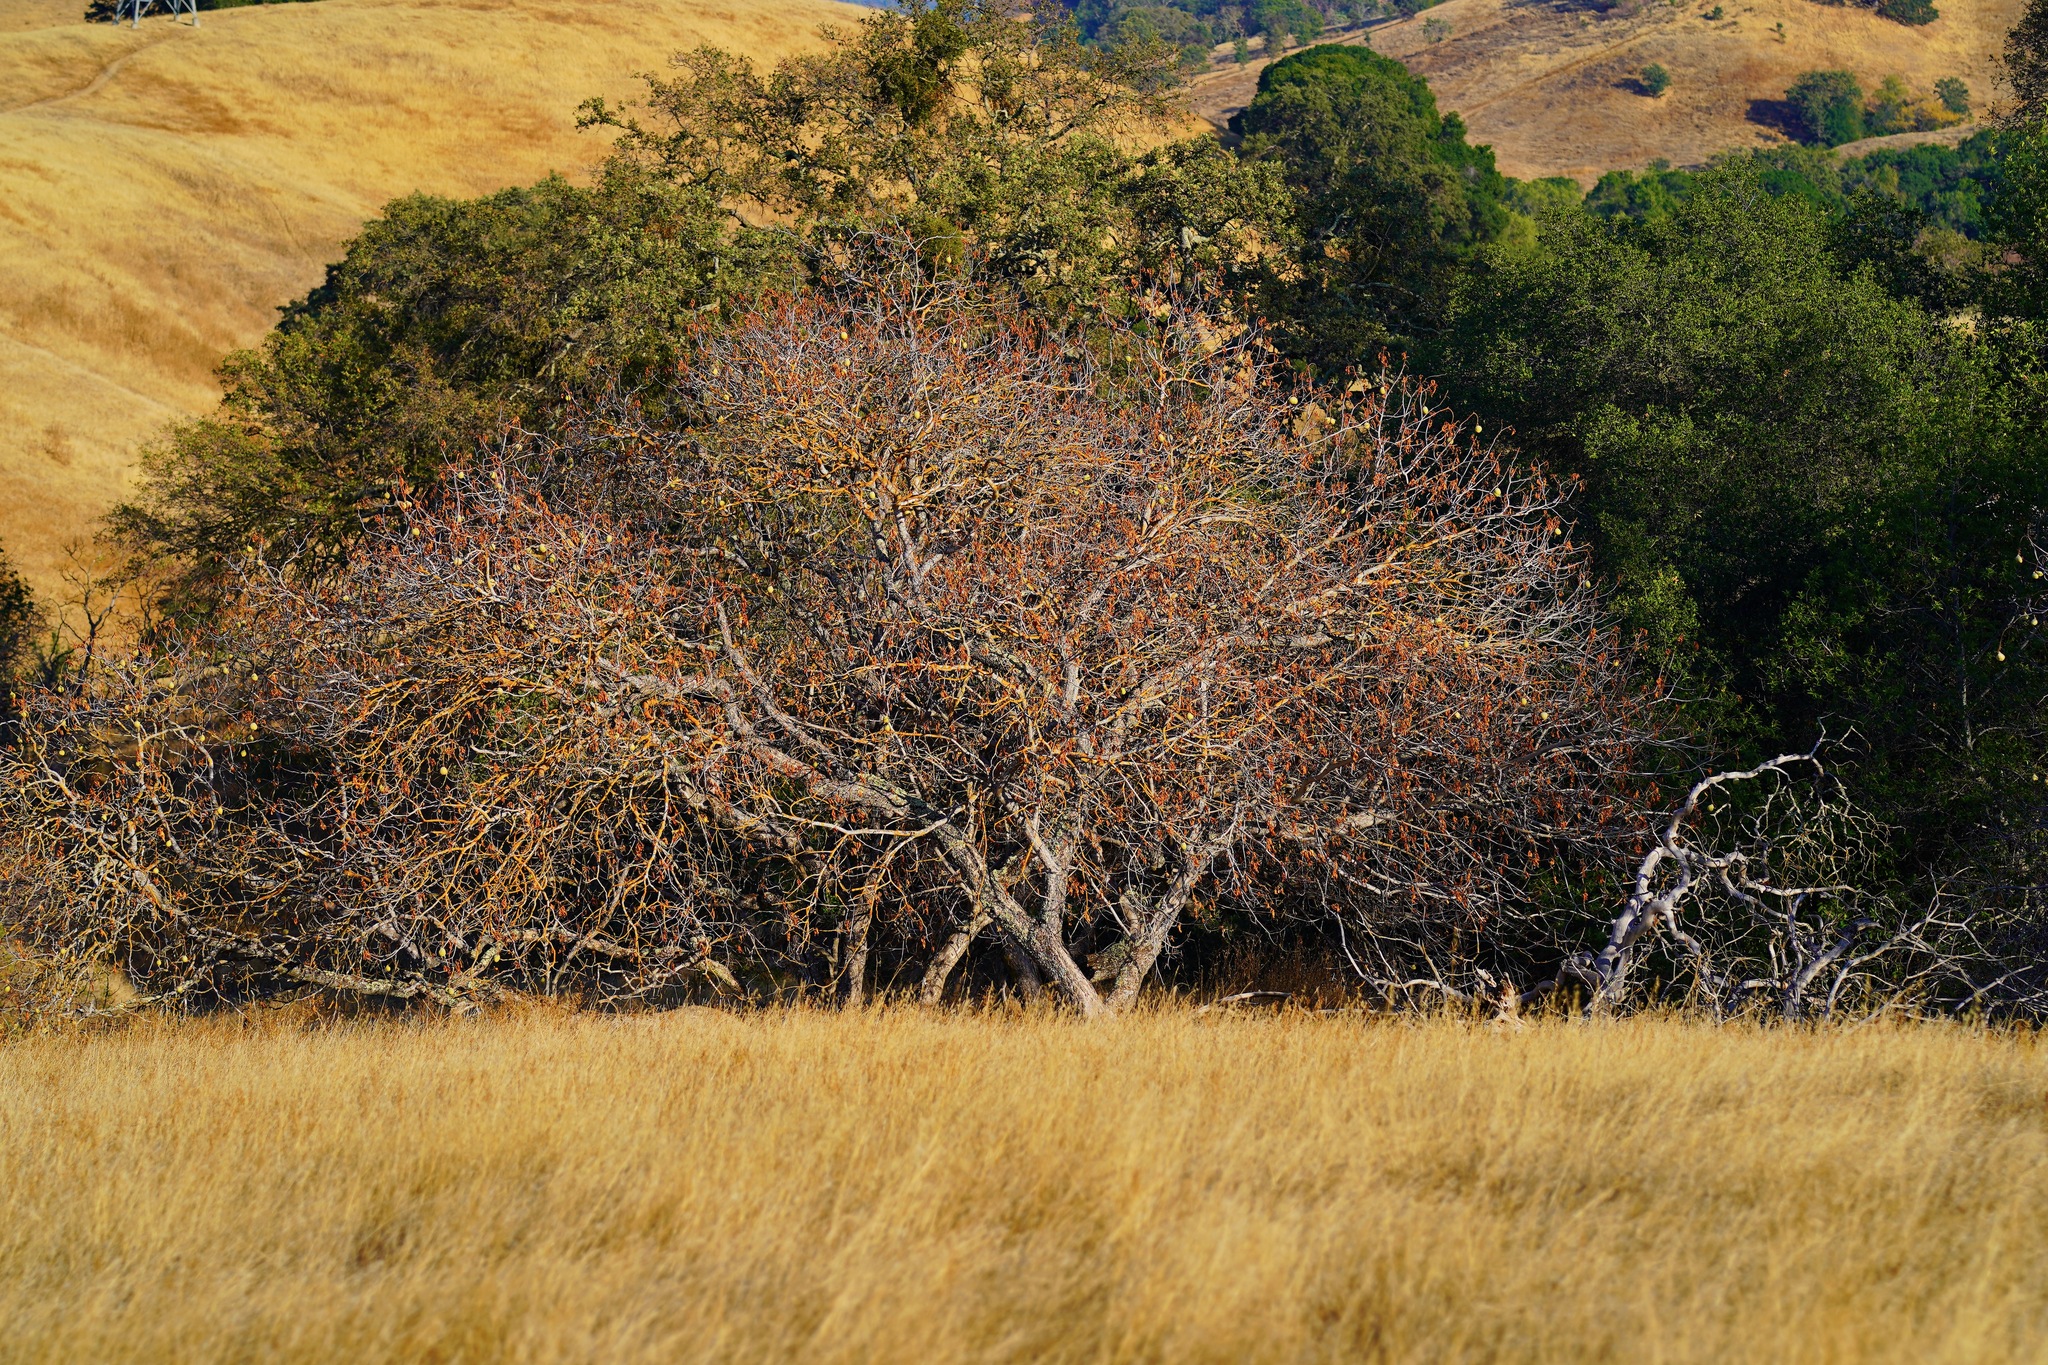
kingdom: Plantae
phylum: Tracheophyta
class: Magnoliopsida
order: Sapindales
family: Sapindaceae
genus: Aesculus
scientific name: Aesculus californica
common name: California buckeye
